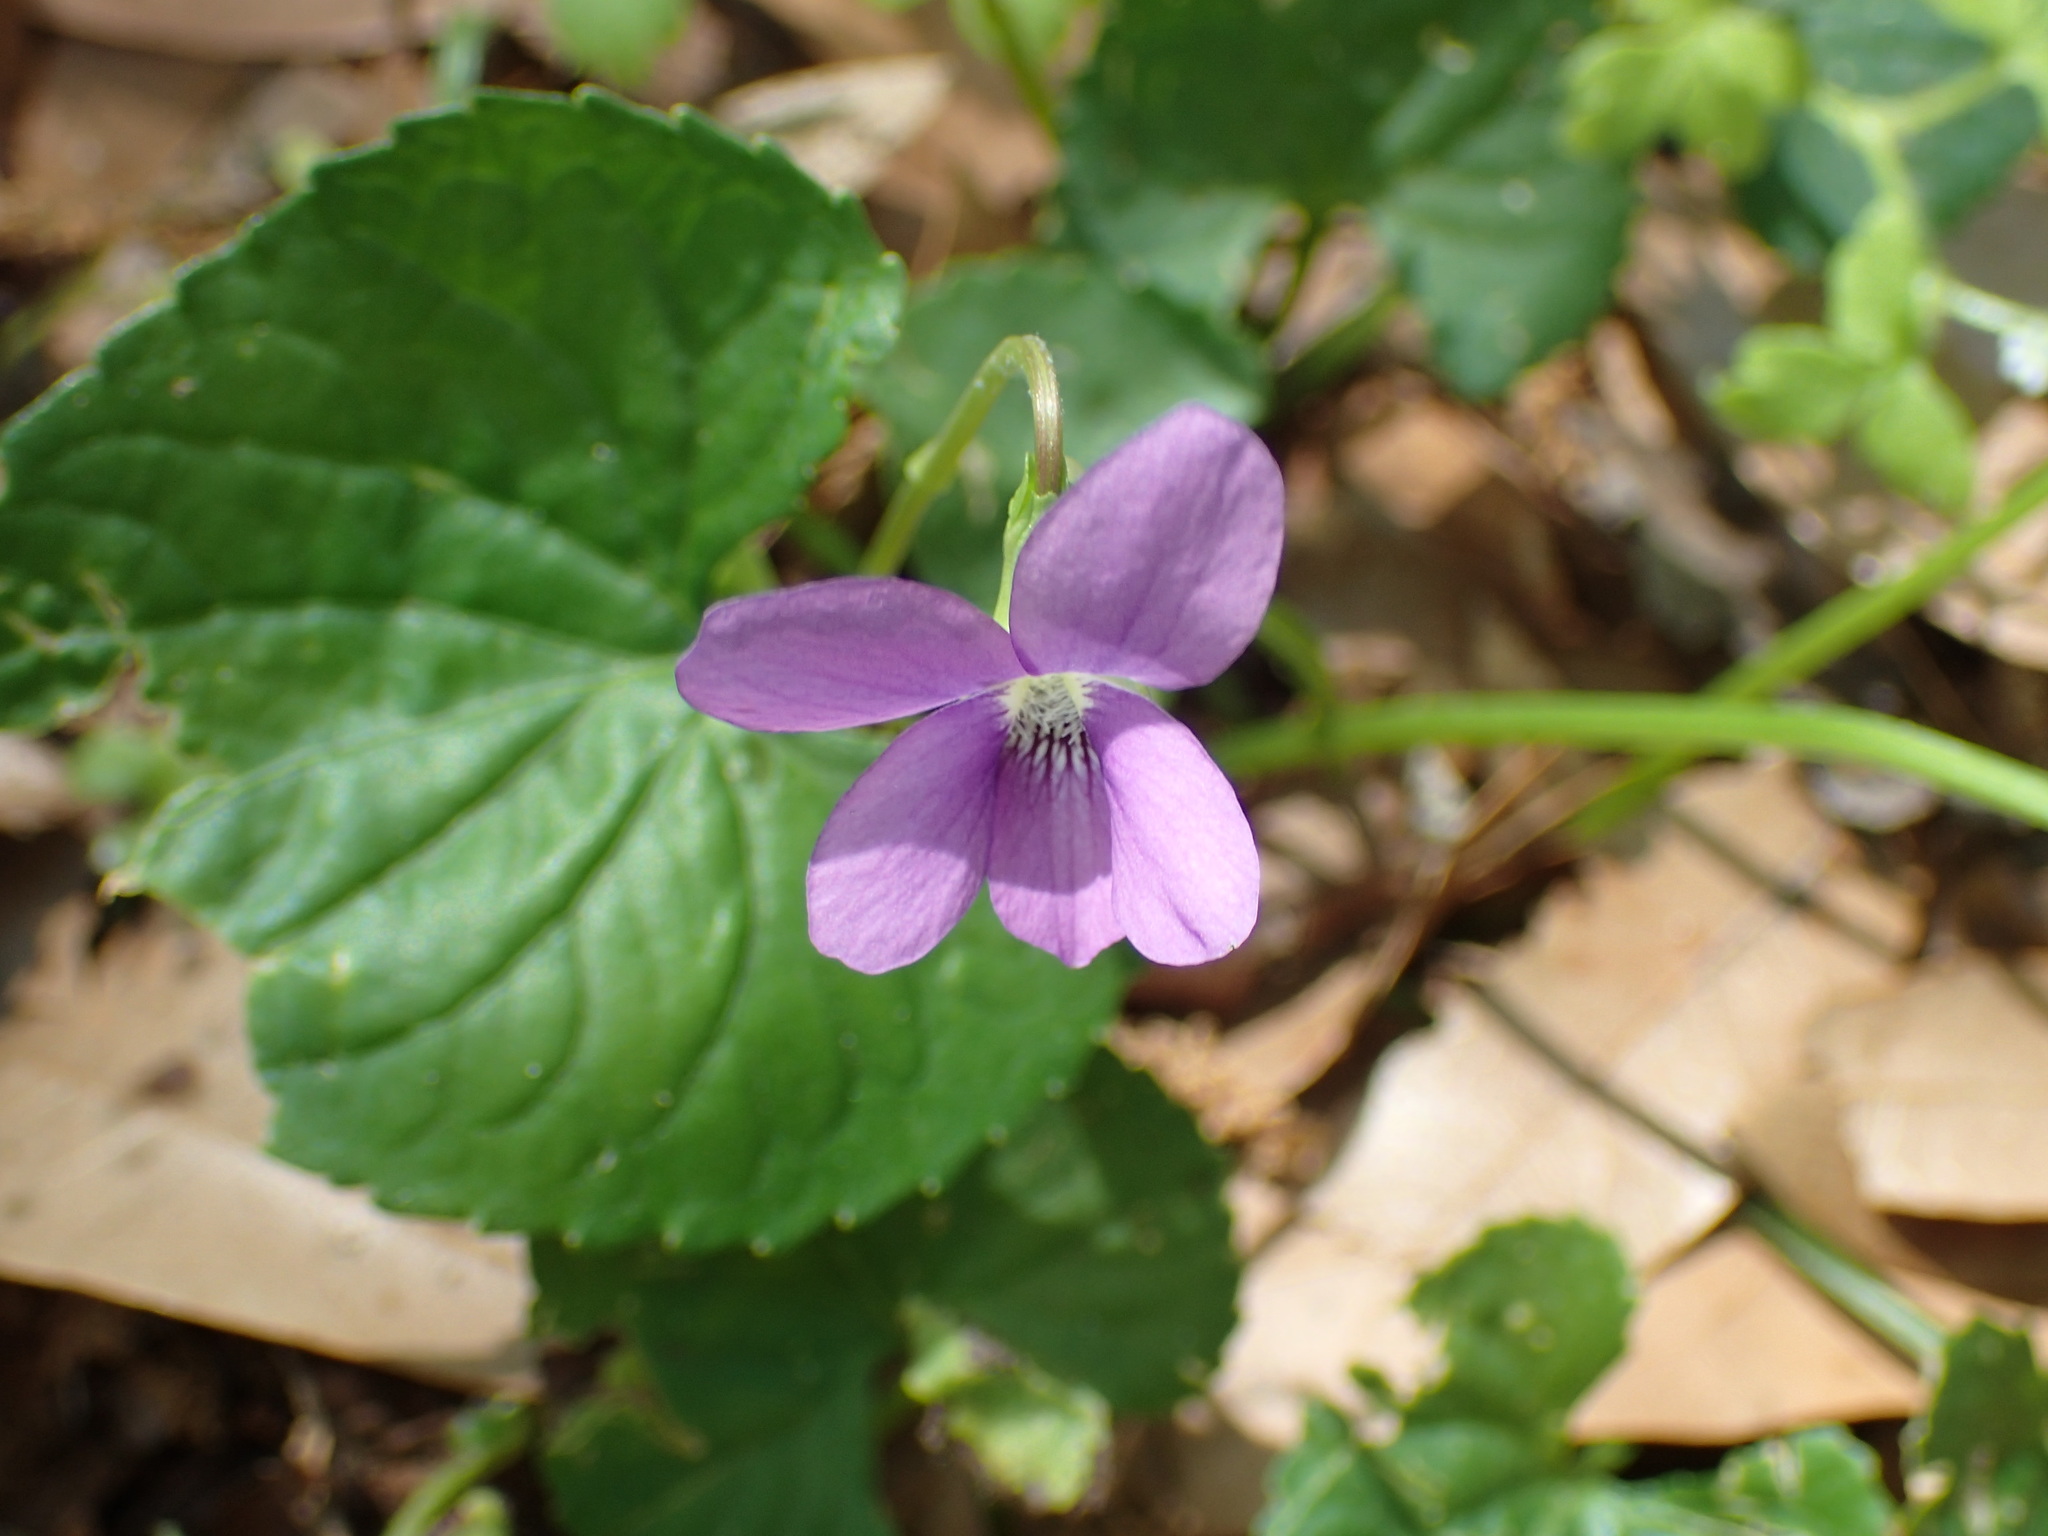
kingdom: Plantae
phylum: Tracheophyta
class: Magnoliopsida
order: Malpighiales
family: Violaceae
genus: Viola
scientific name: Viola sororia
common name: Dooryard violet
